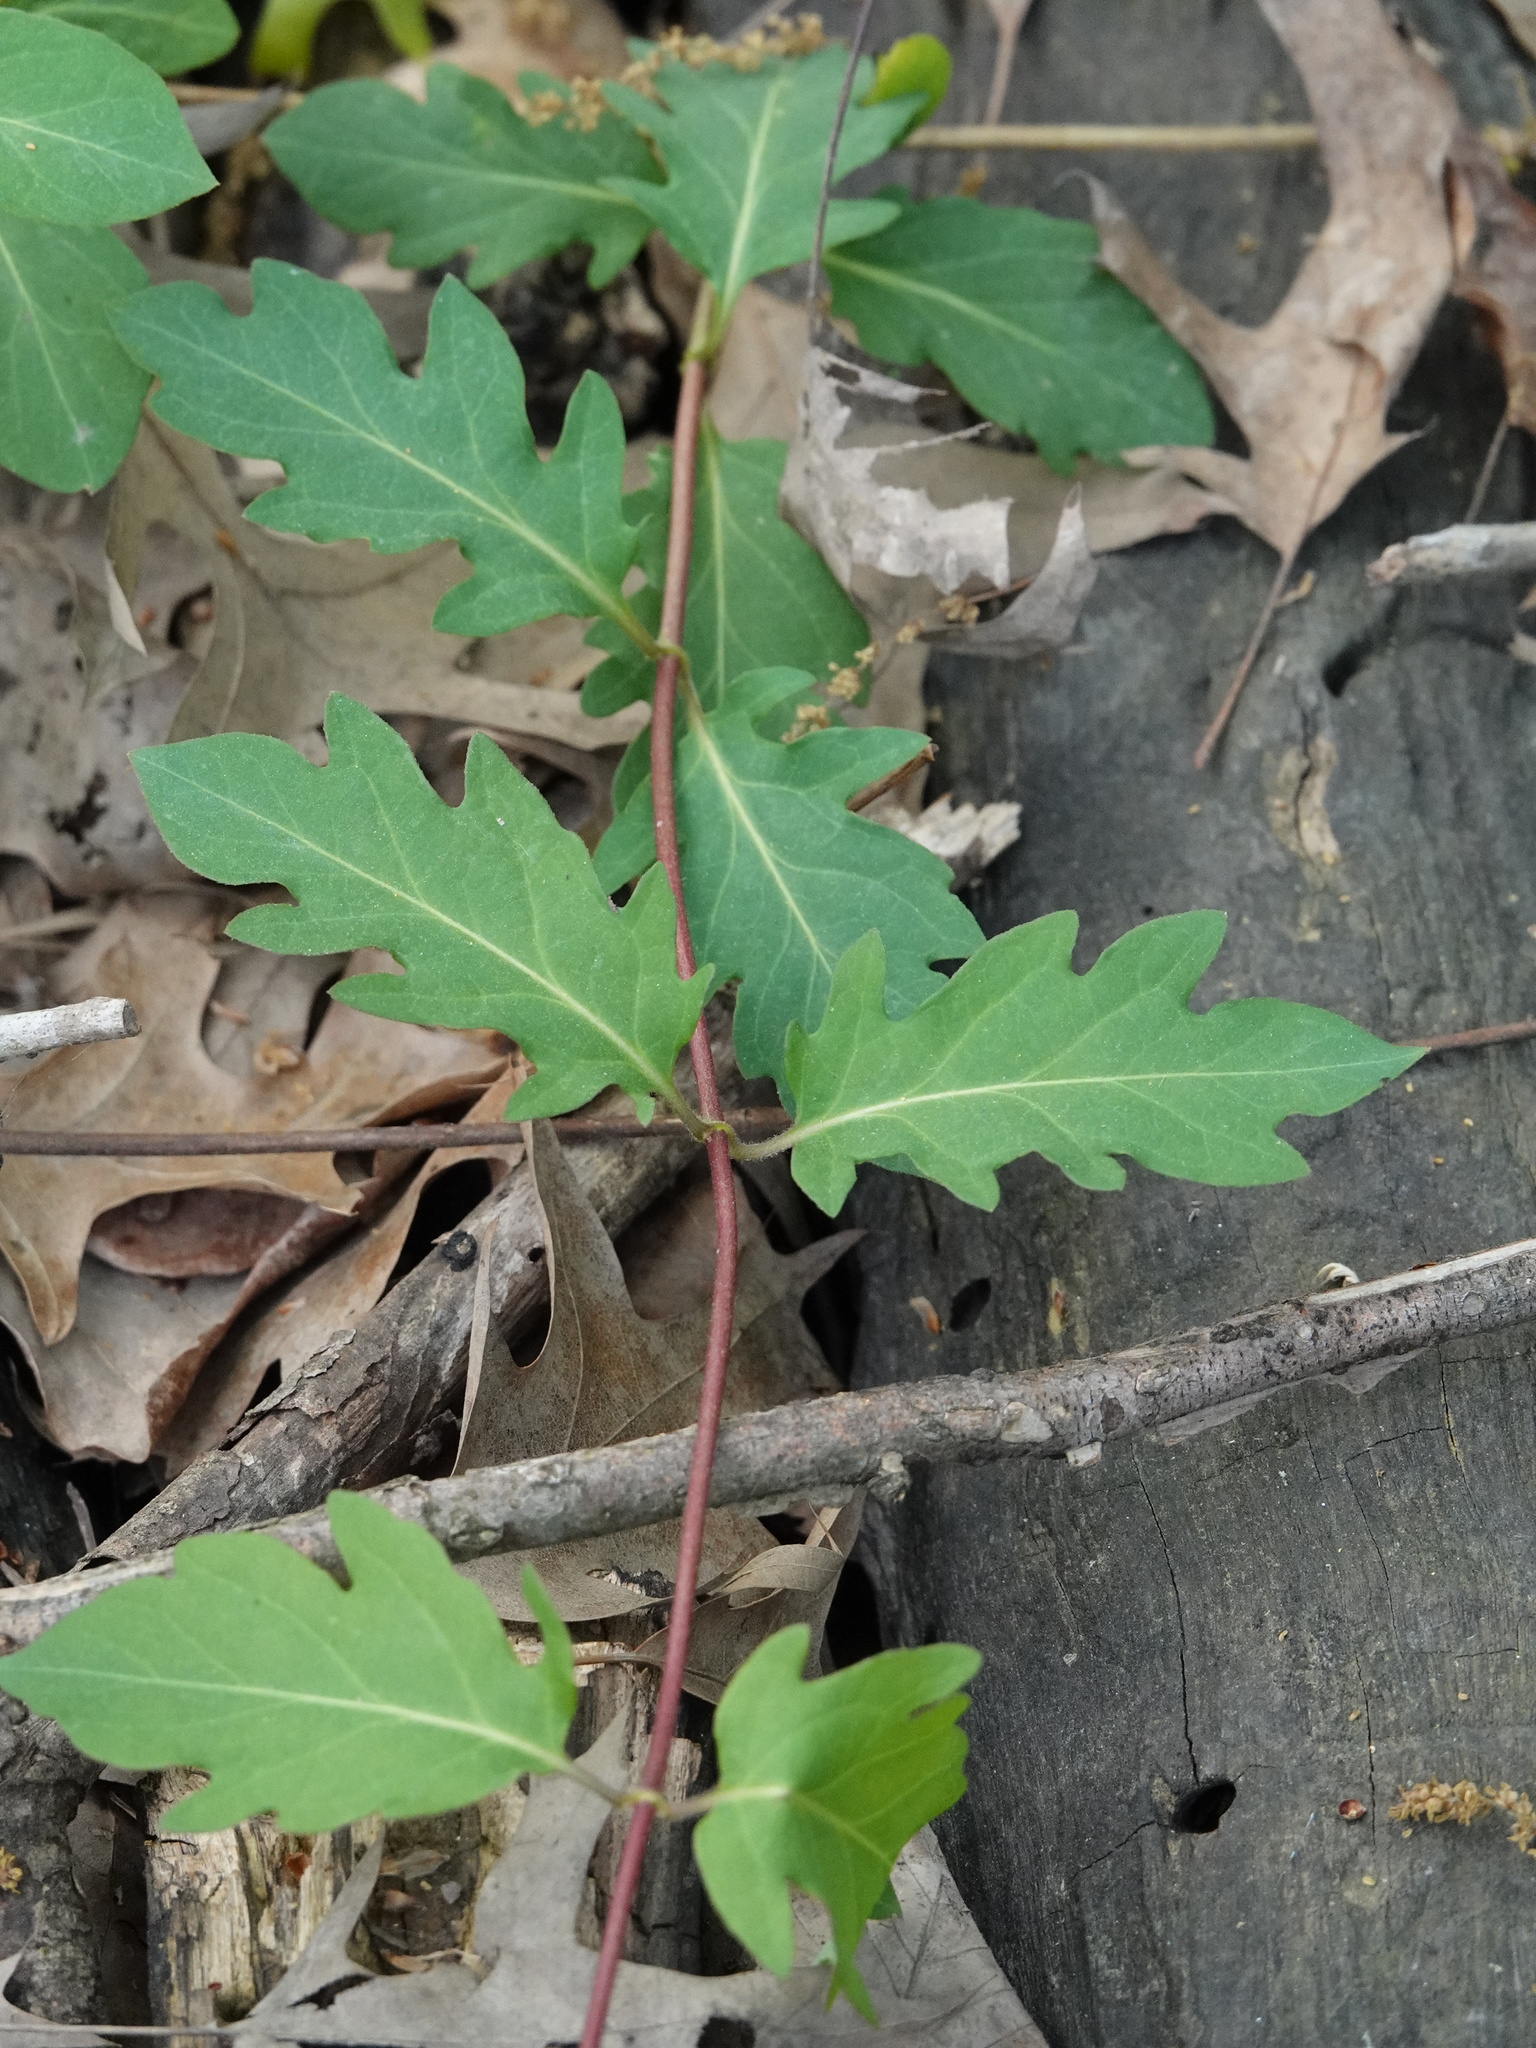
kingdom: Plantae
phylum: Tracheophyta
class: Magnoliopsida
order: Dipsacales
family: Caprifoliaceae
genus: Lonicera
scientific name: Lonicera japonica
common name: Japanese honeysuckle
